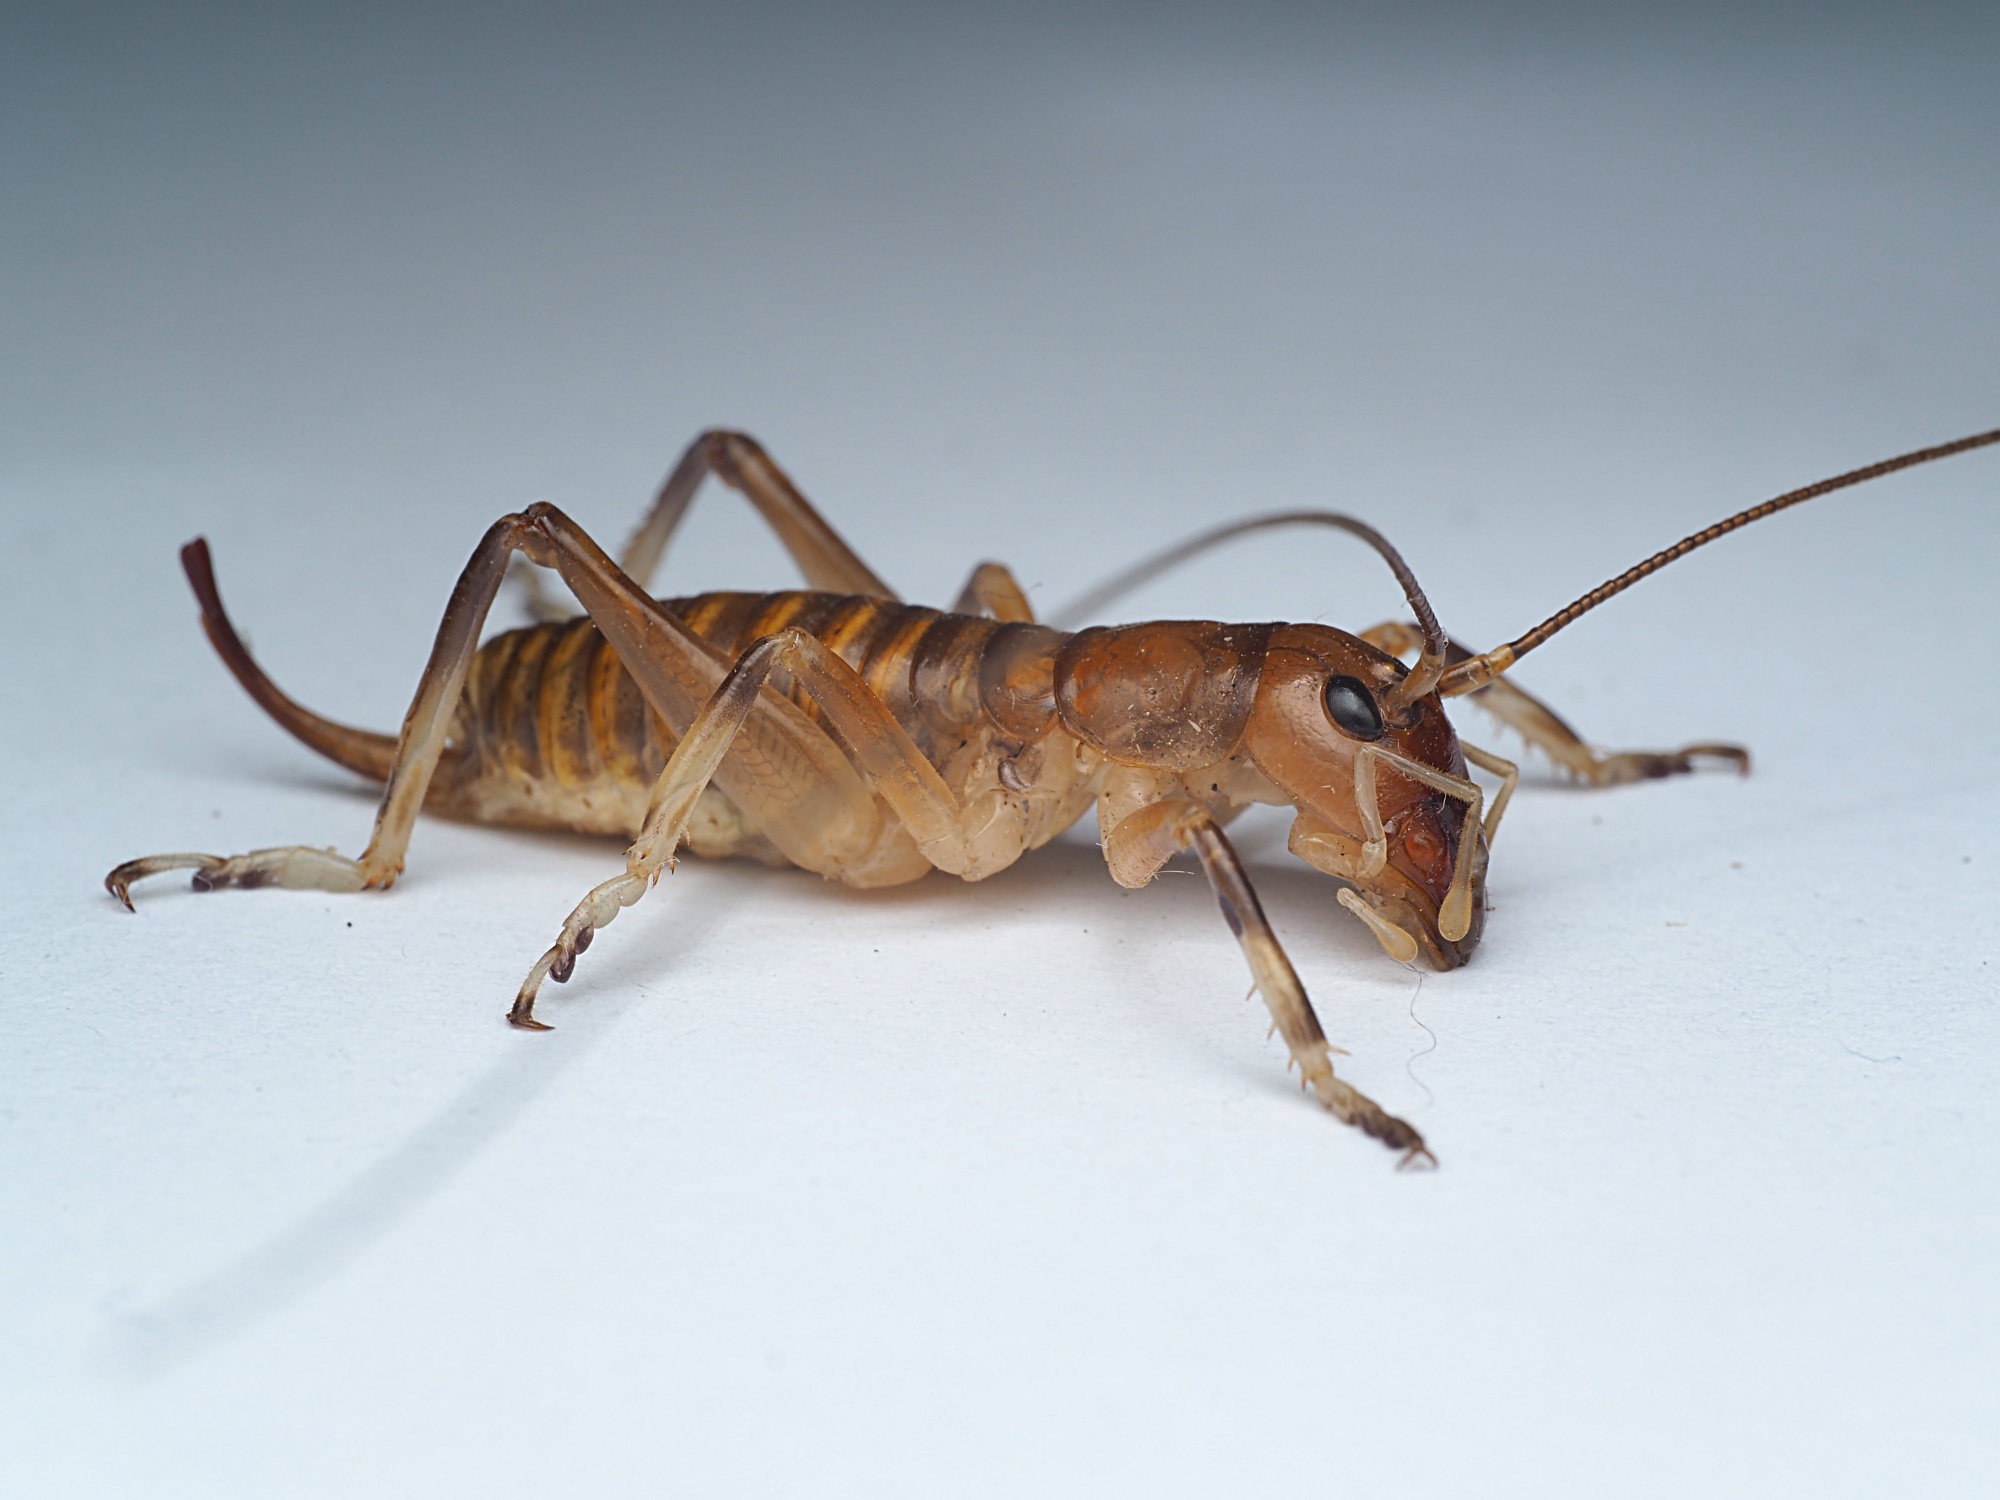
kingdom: Animalia
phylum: Arthropoda
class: Insecta
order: Orthoptera
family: Anostostomatidae
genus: Anisoura
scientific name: Anisoura nicobarica
